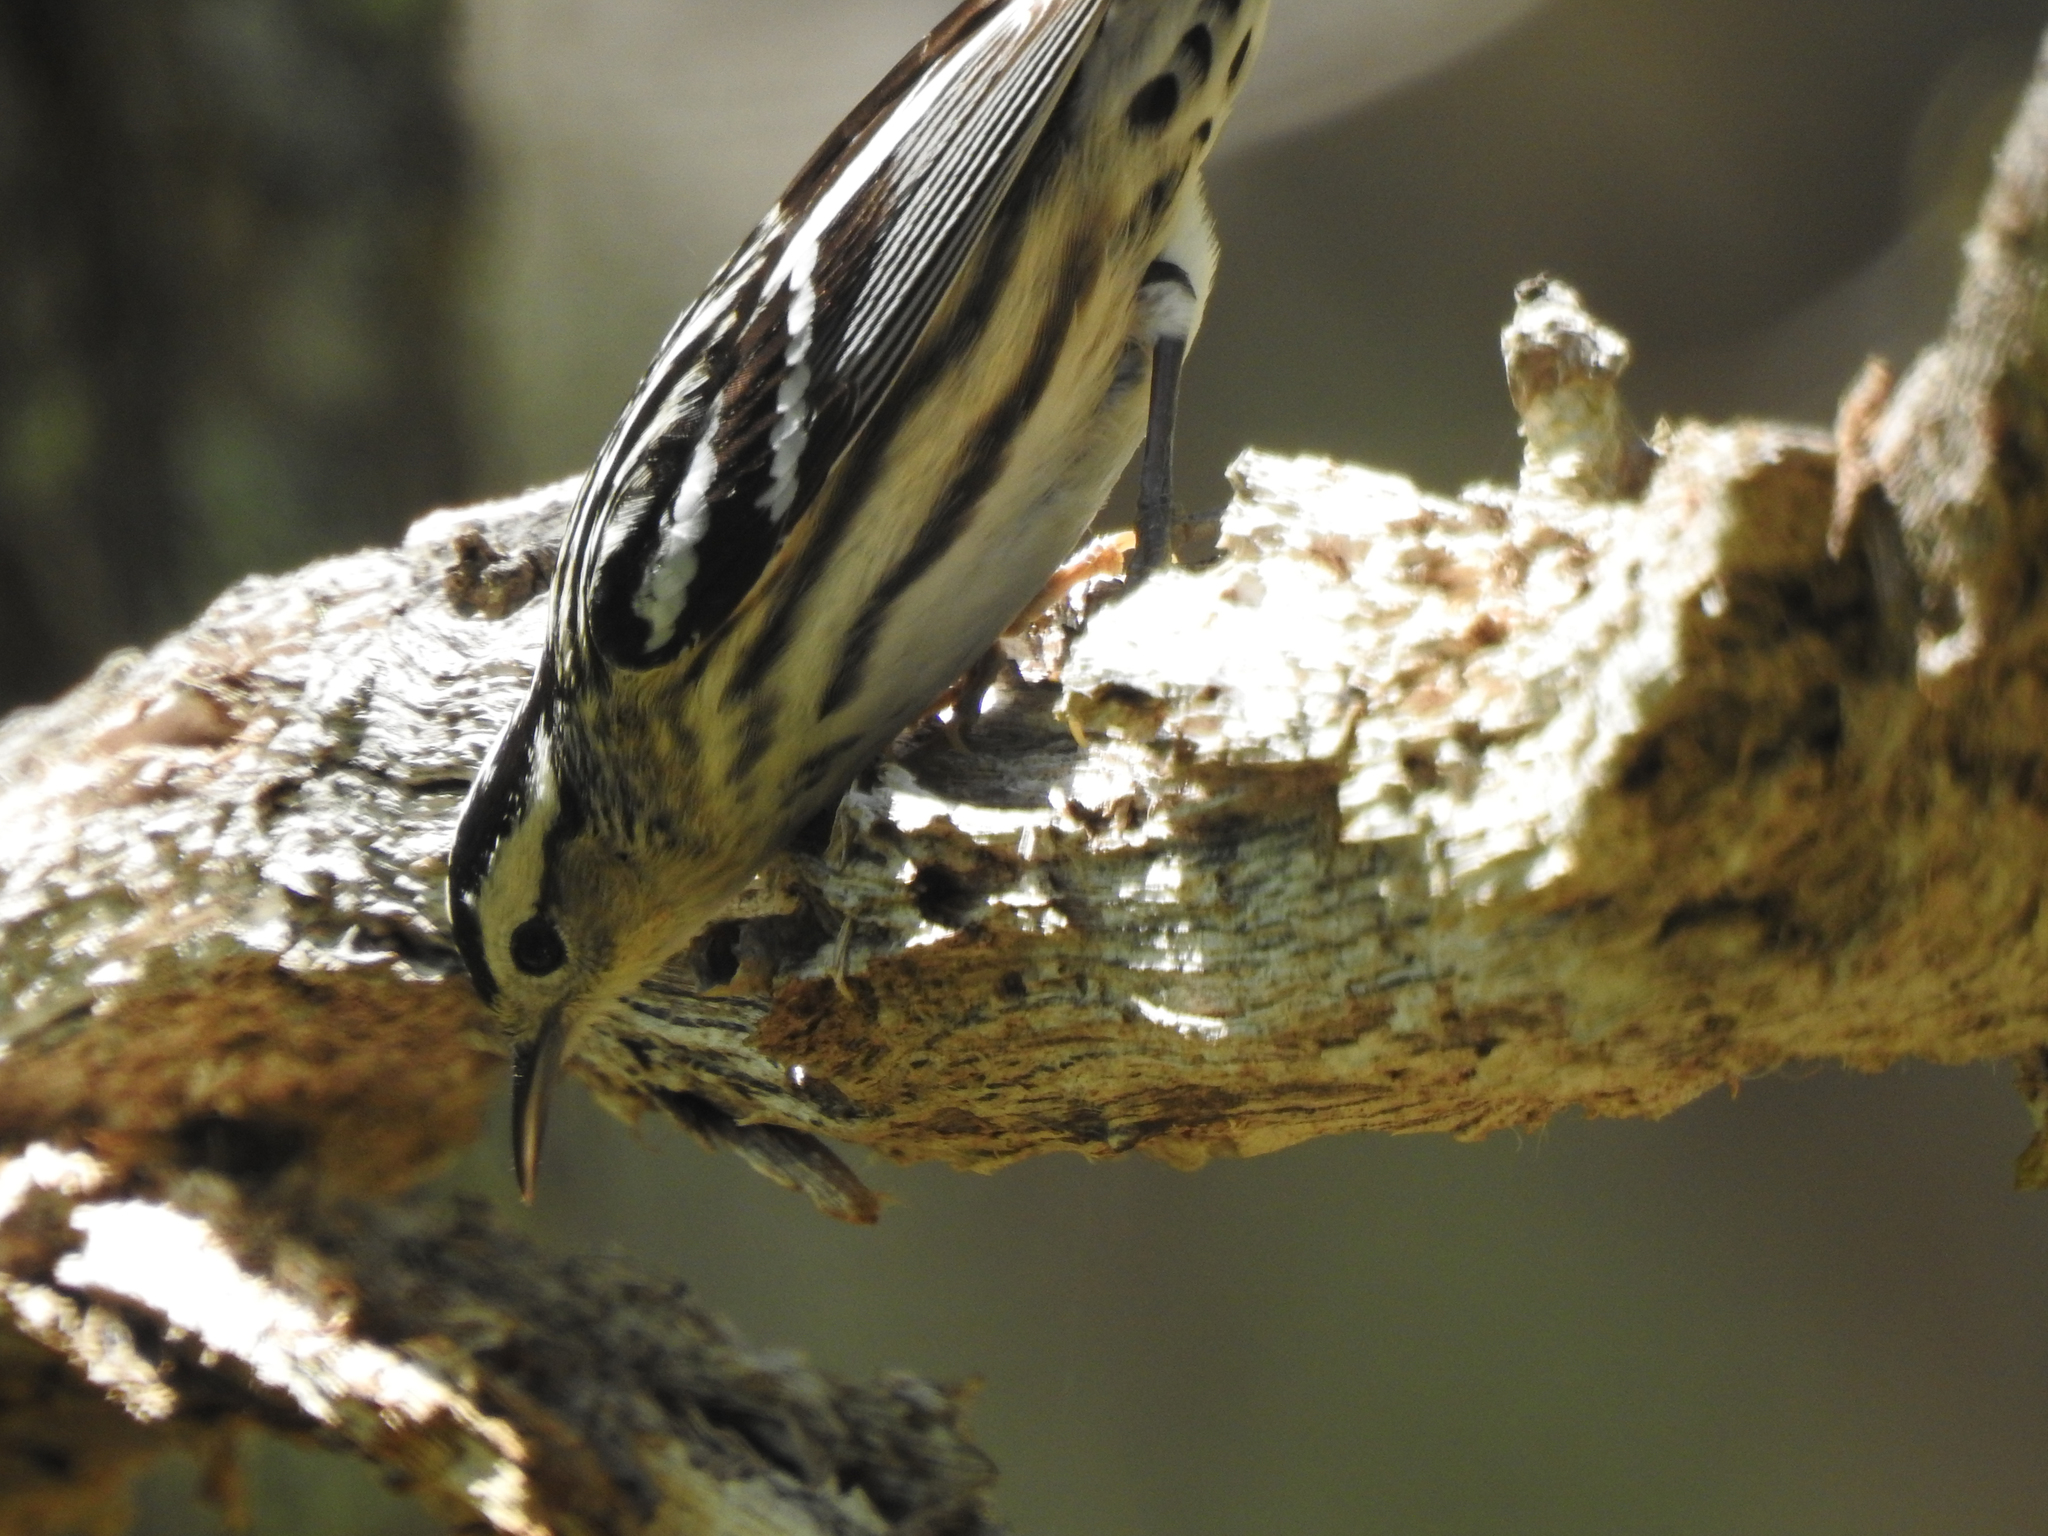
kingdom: Animalia
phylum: Chordata
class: Aves
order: Passeriformes
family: Parulidae
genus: Mniotilta
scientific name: Mniotilta varia
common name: Black-and-white warbler
